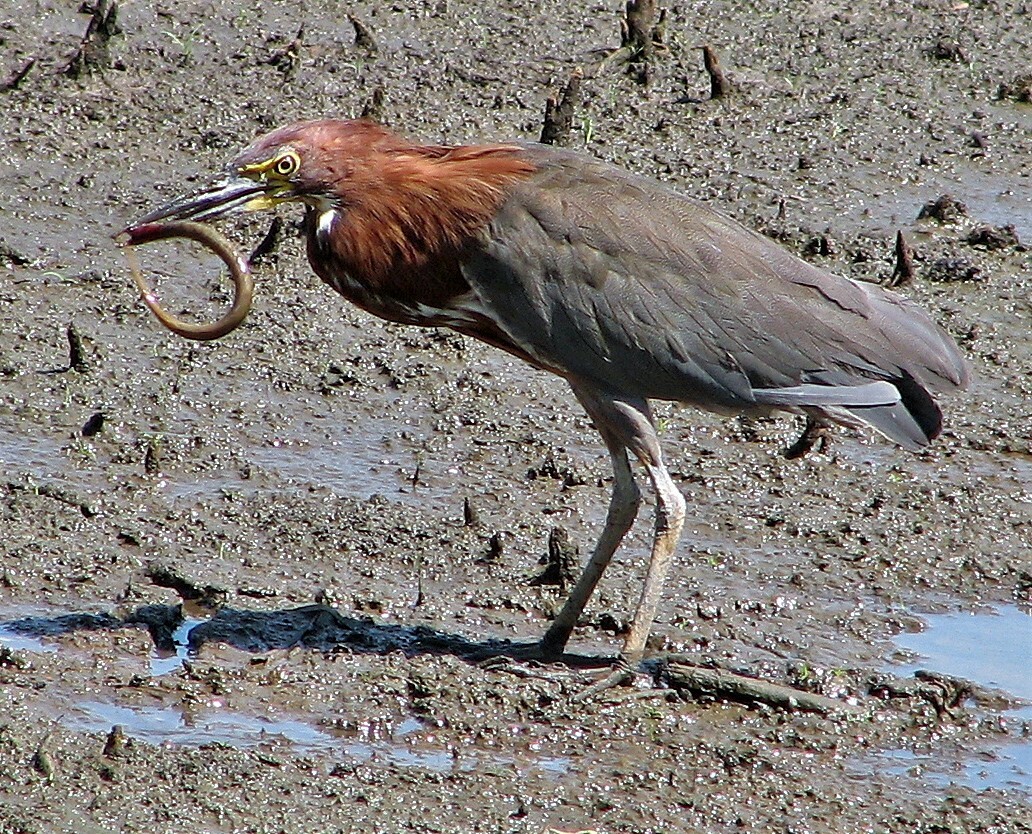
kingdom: Animalia
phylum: Chordata
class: Aves
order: Pelecaniformes
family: Ardeidae
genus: Tigrisoma
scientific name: Tigrisoma lineatum
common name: Rufescent tiger-heron
